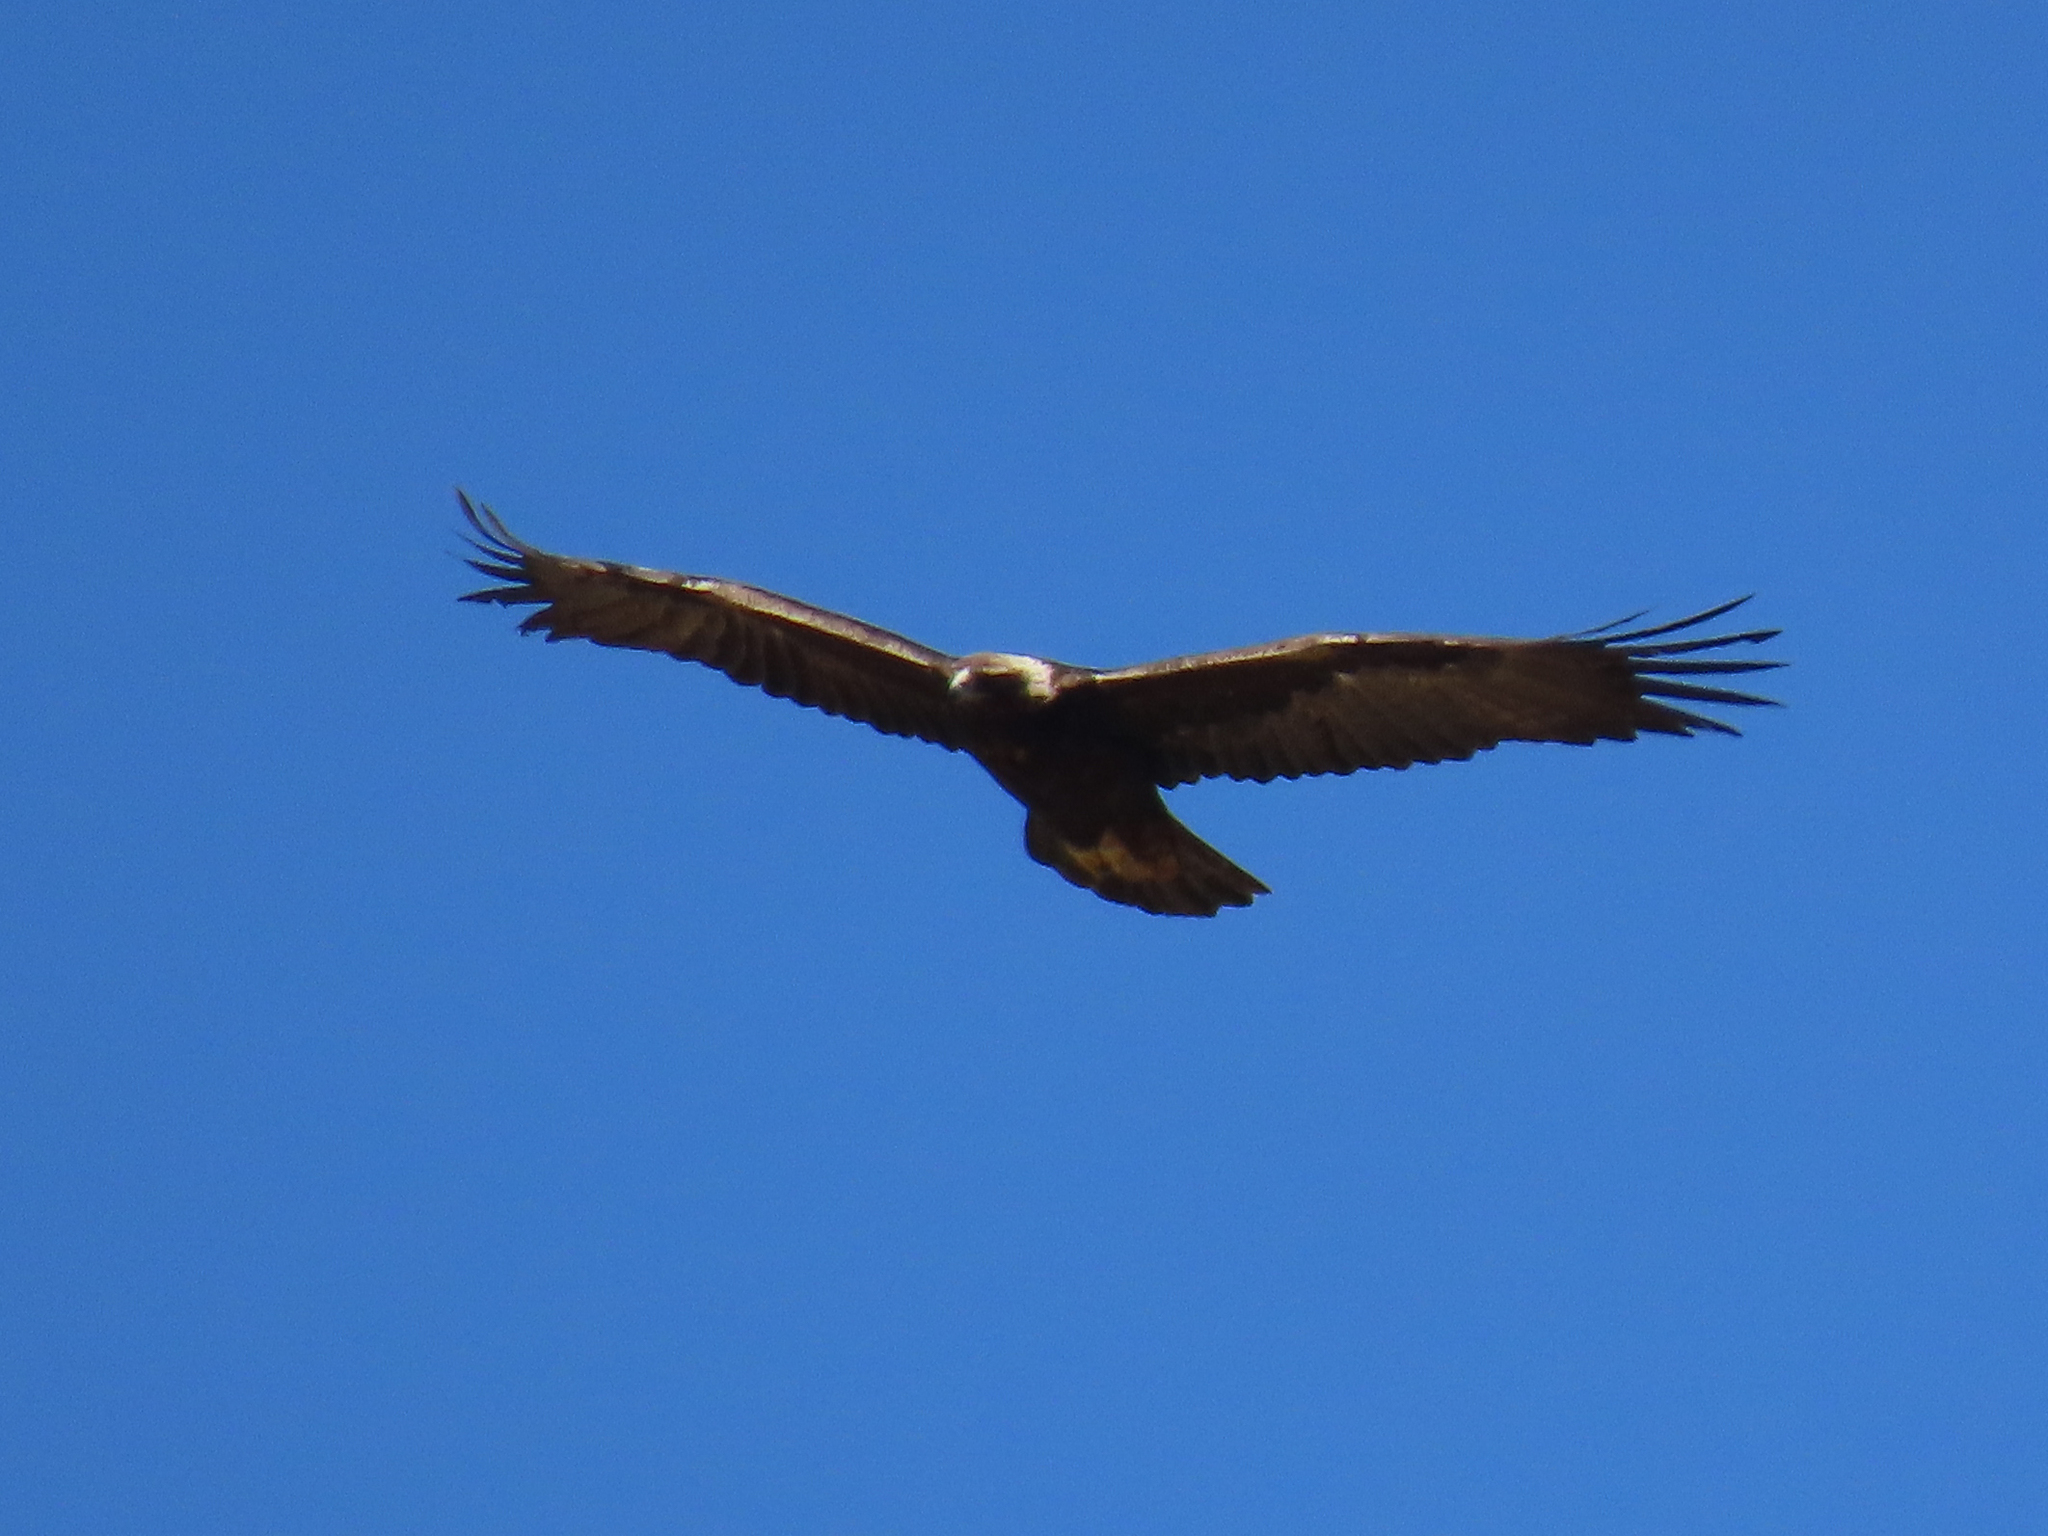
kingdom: Animalia
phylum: Chordata
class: Aves
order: Accipitriformes
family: Accipitridae
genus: Aquila
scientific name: Aquila chrysaetos
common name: Golden eagle
